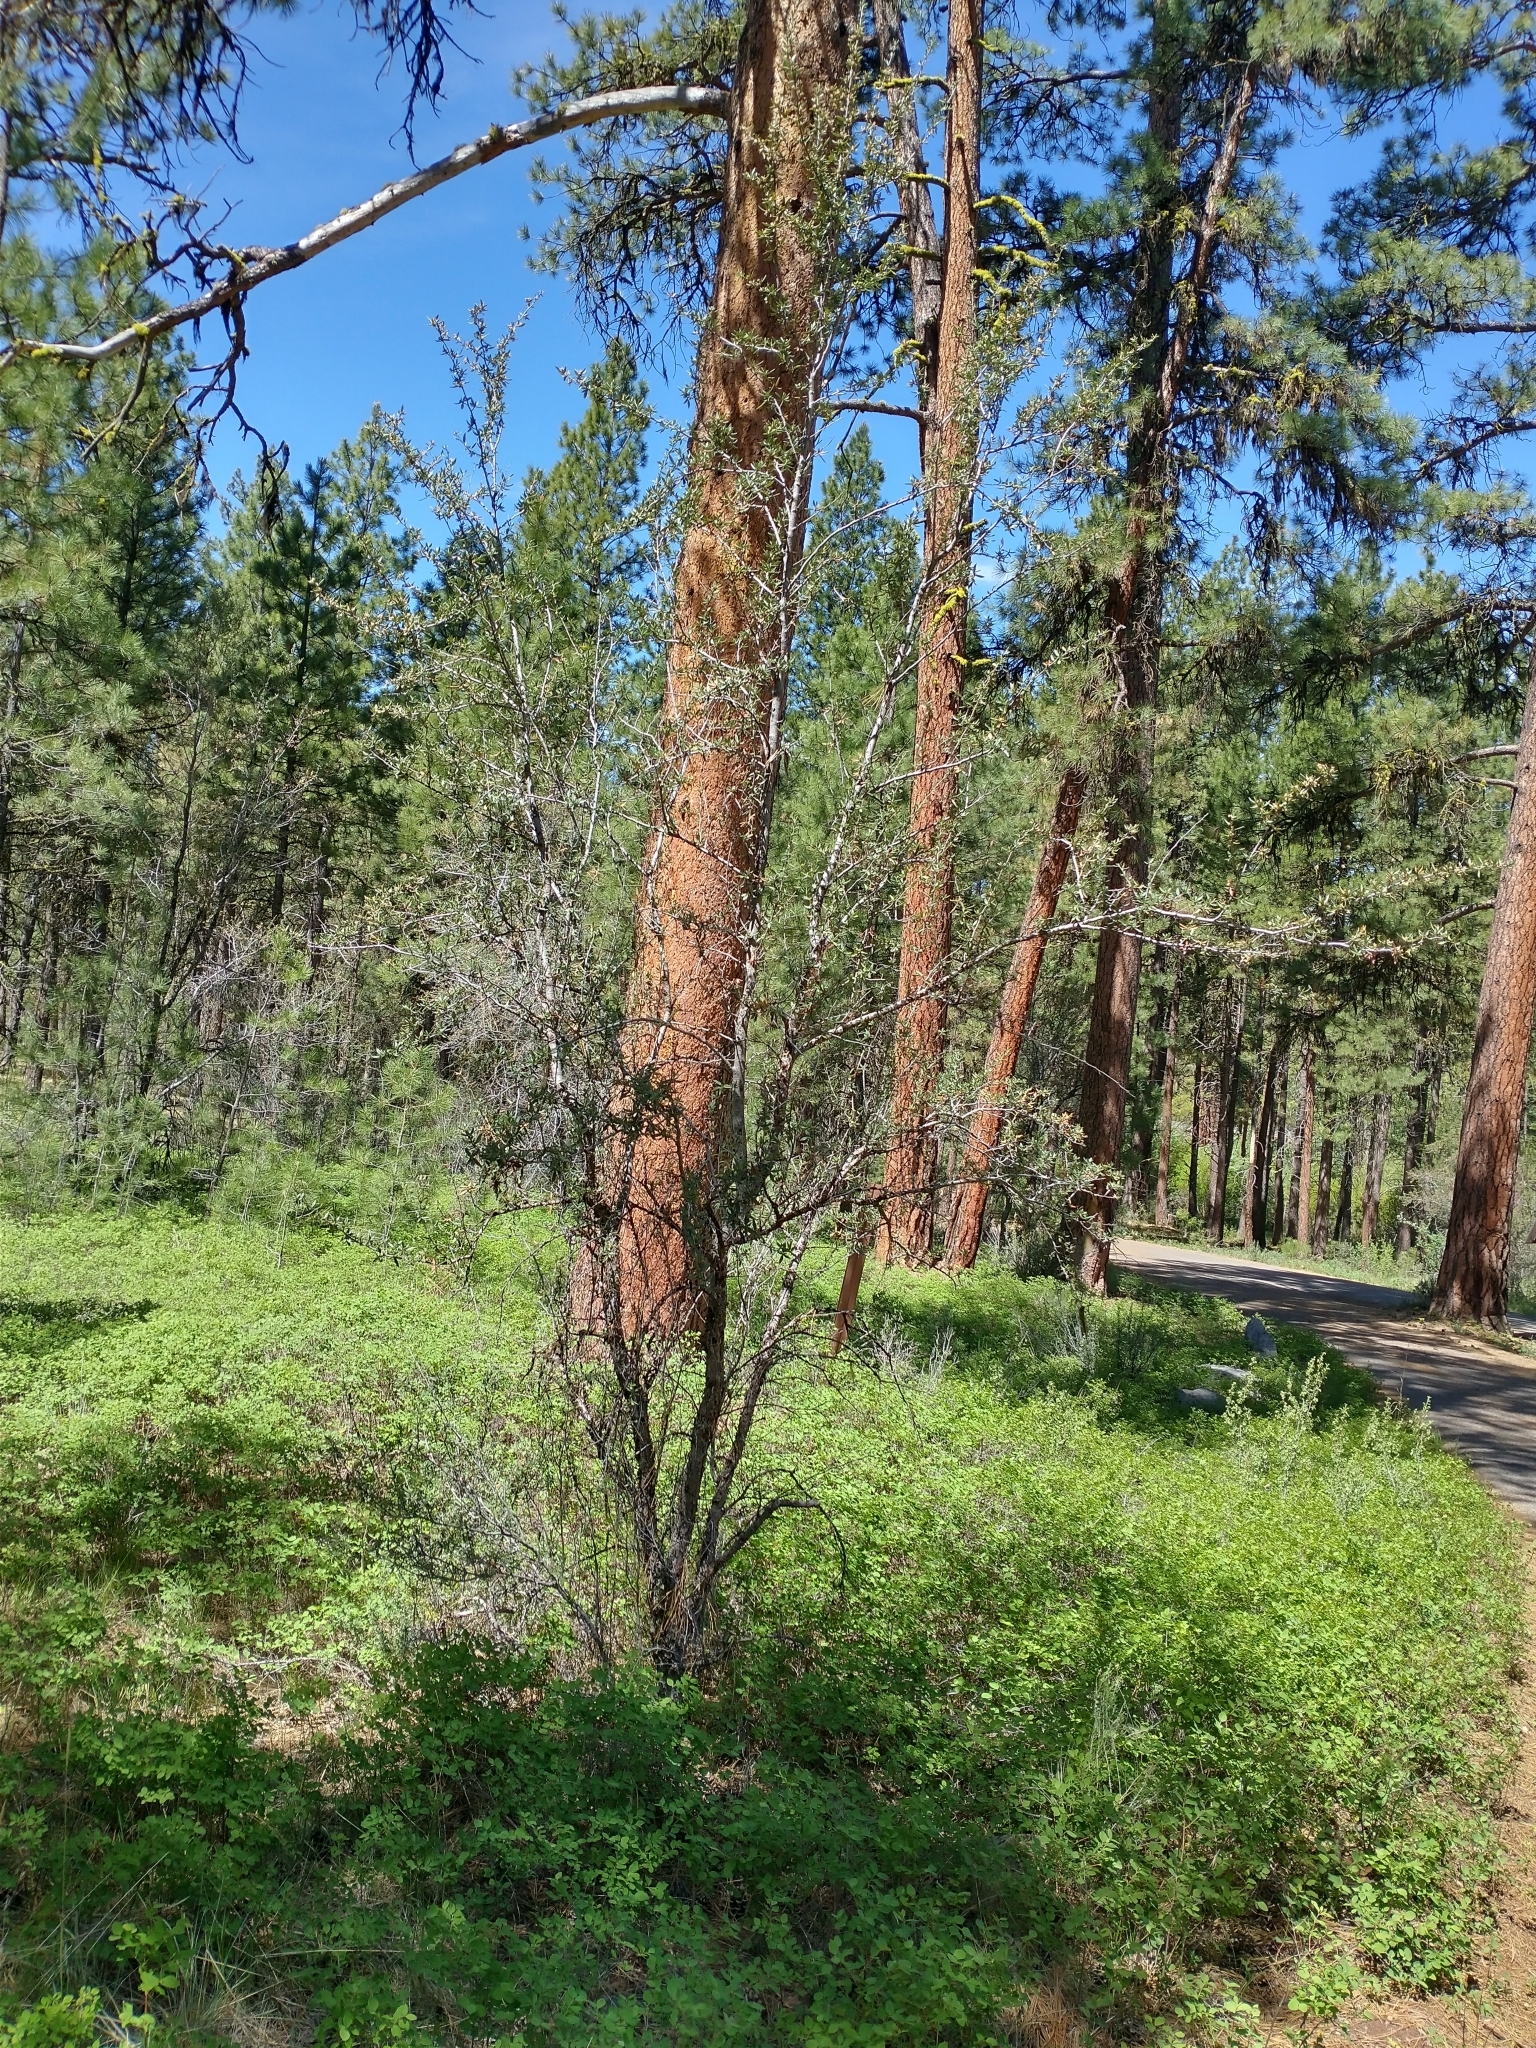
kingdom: Plantae
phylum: Tracheophyta
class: Magnoliopsida
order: Rosales
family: Rosaceae
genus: Cercocarpus
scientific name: Cercocarpus ledifolius
